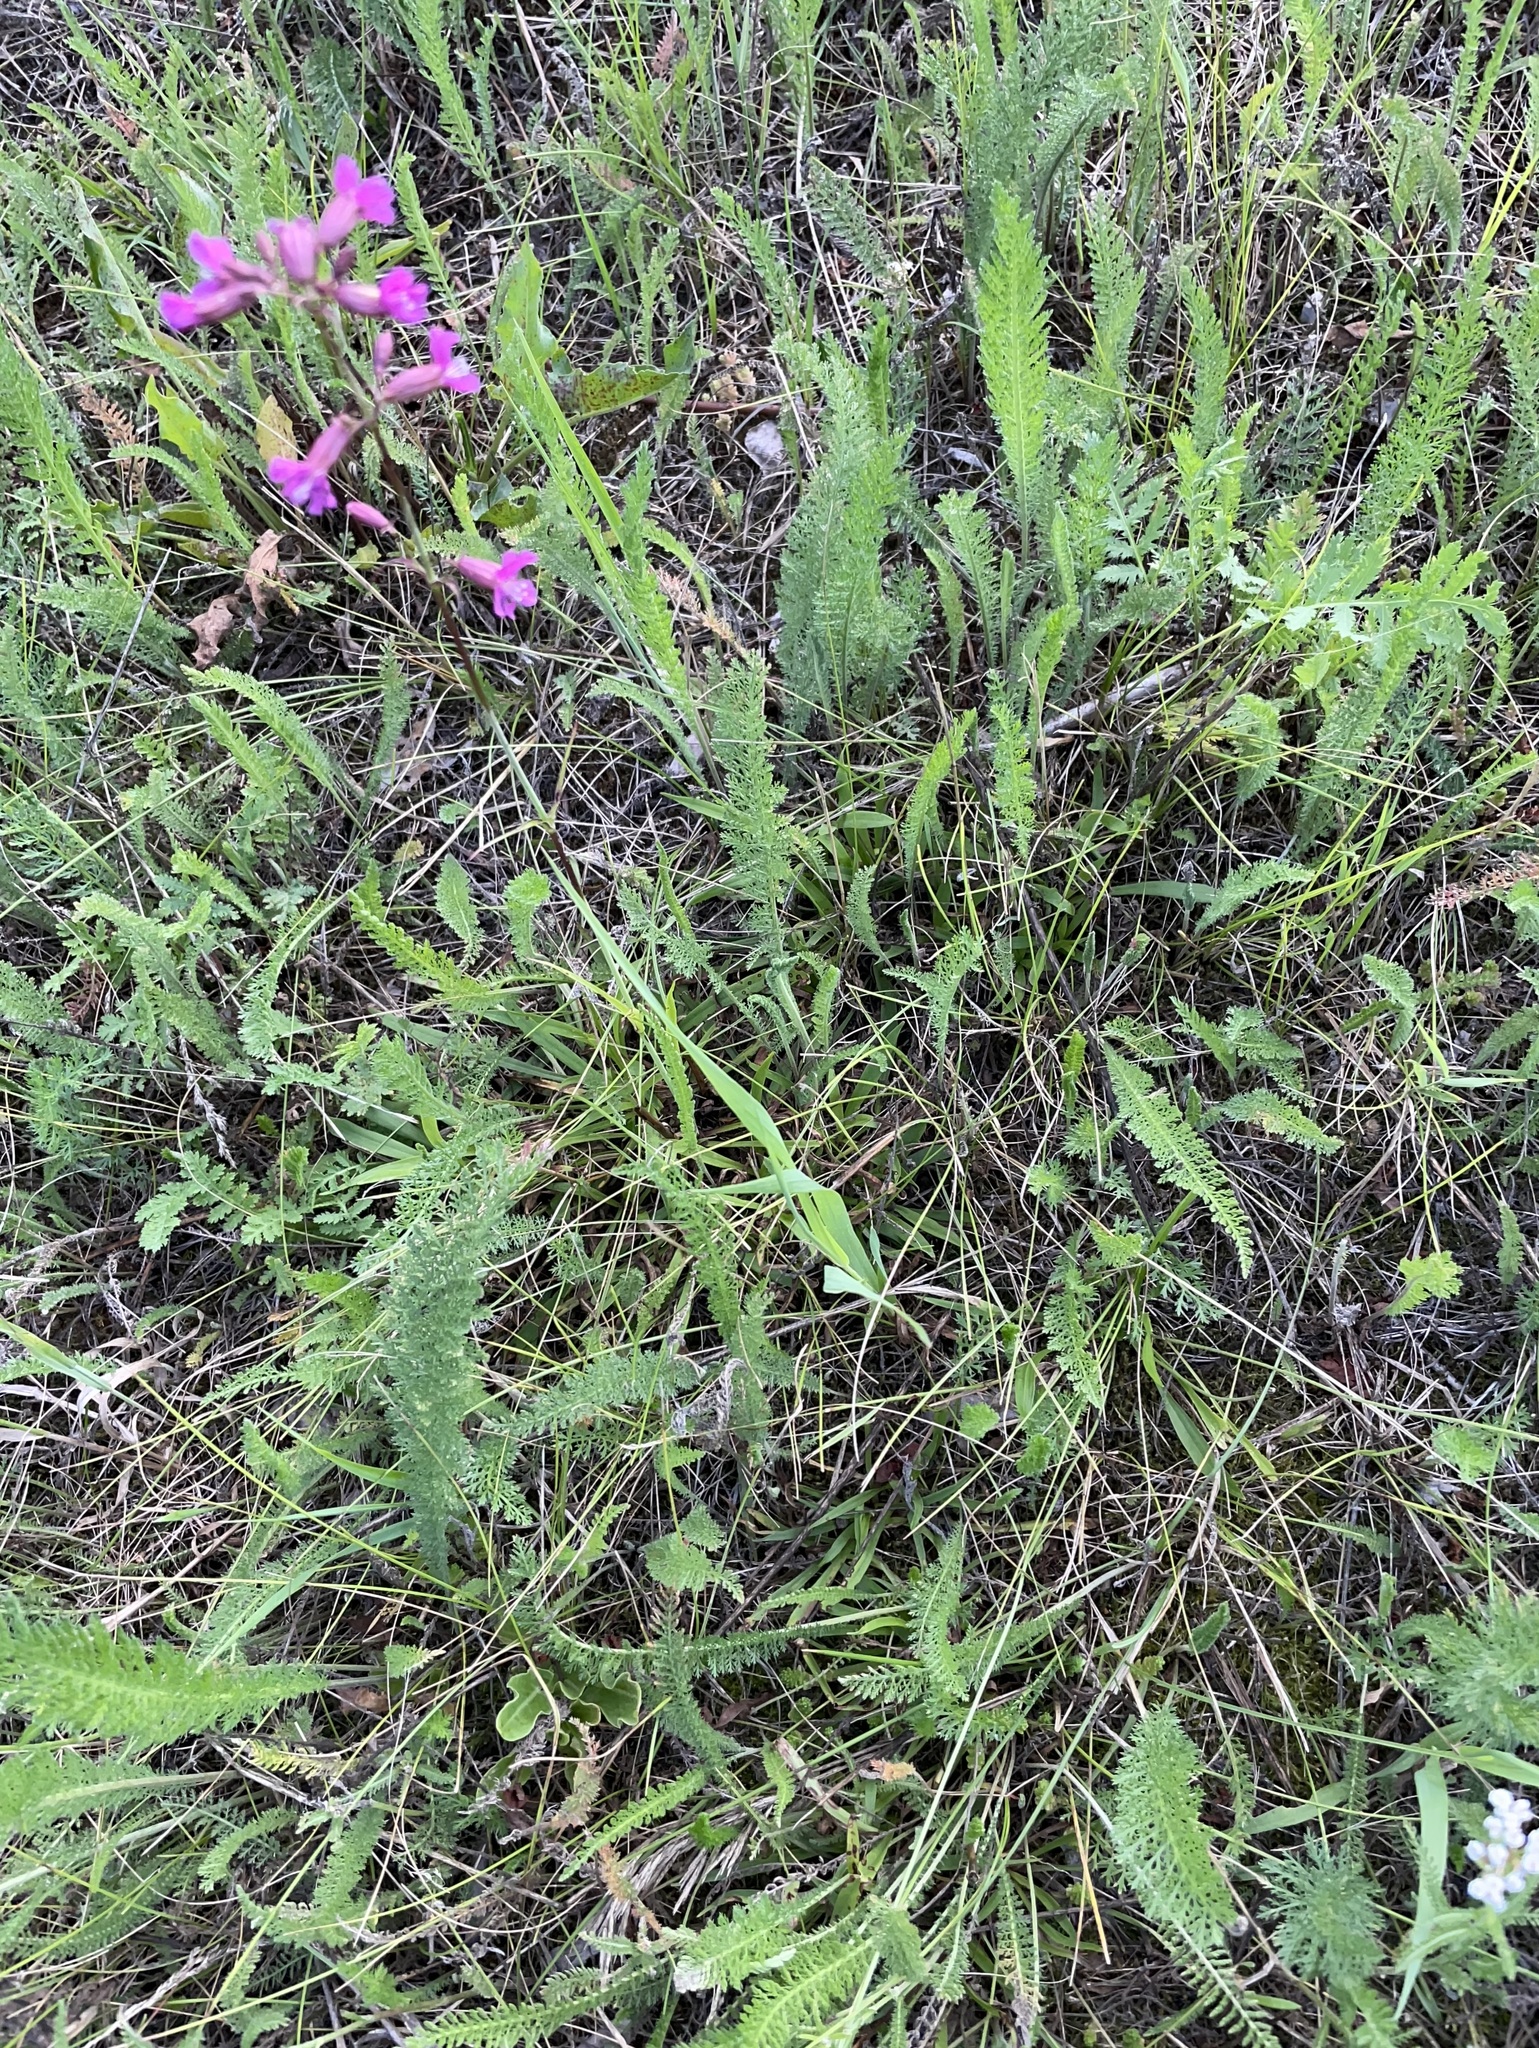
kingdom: Plantae
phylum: Tracheophyta
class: Magnoliopsida
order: Caryophyllales
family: Caryophyllaceae
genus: Viscaria
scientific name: Viscaria vulgaris
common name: Clammy campion
